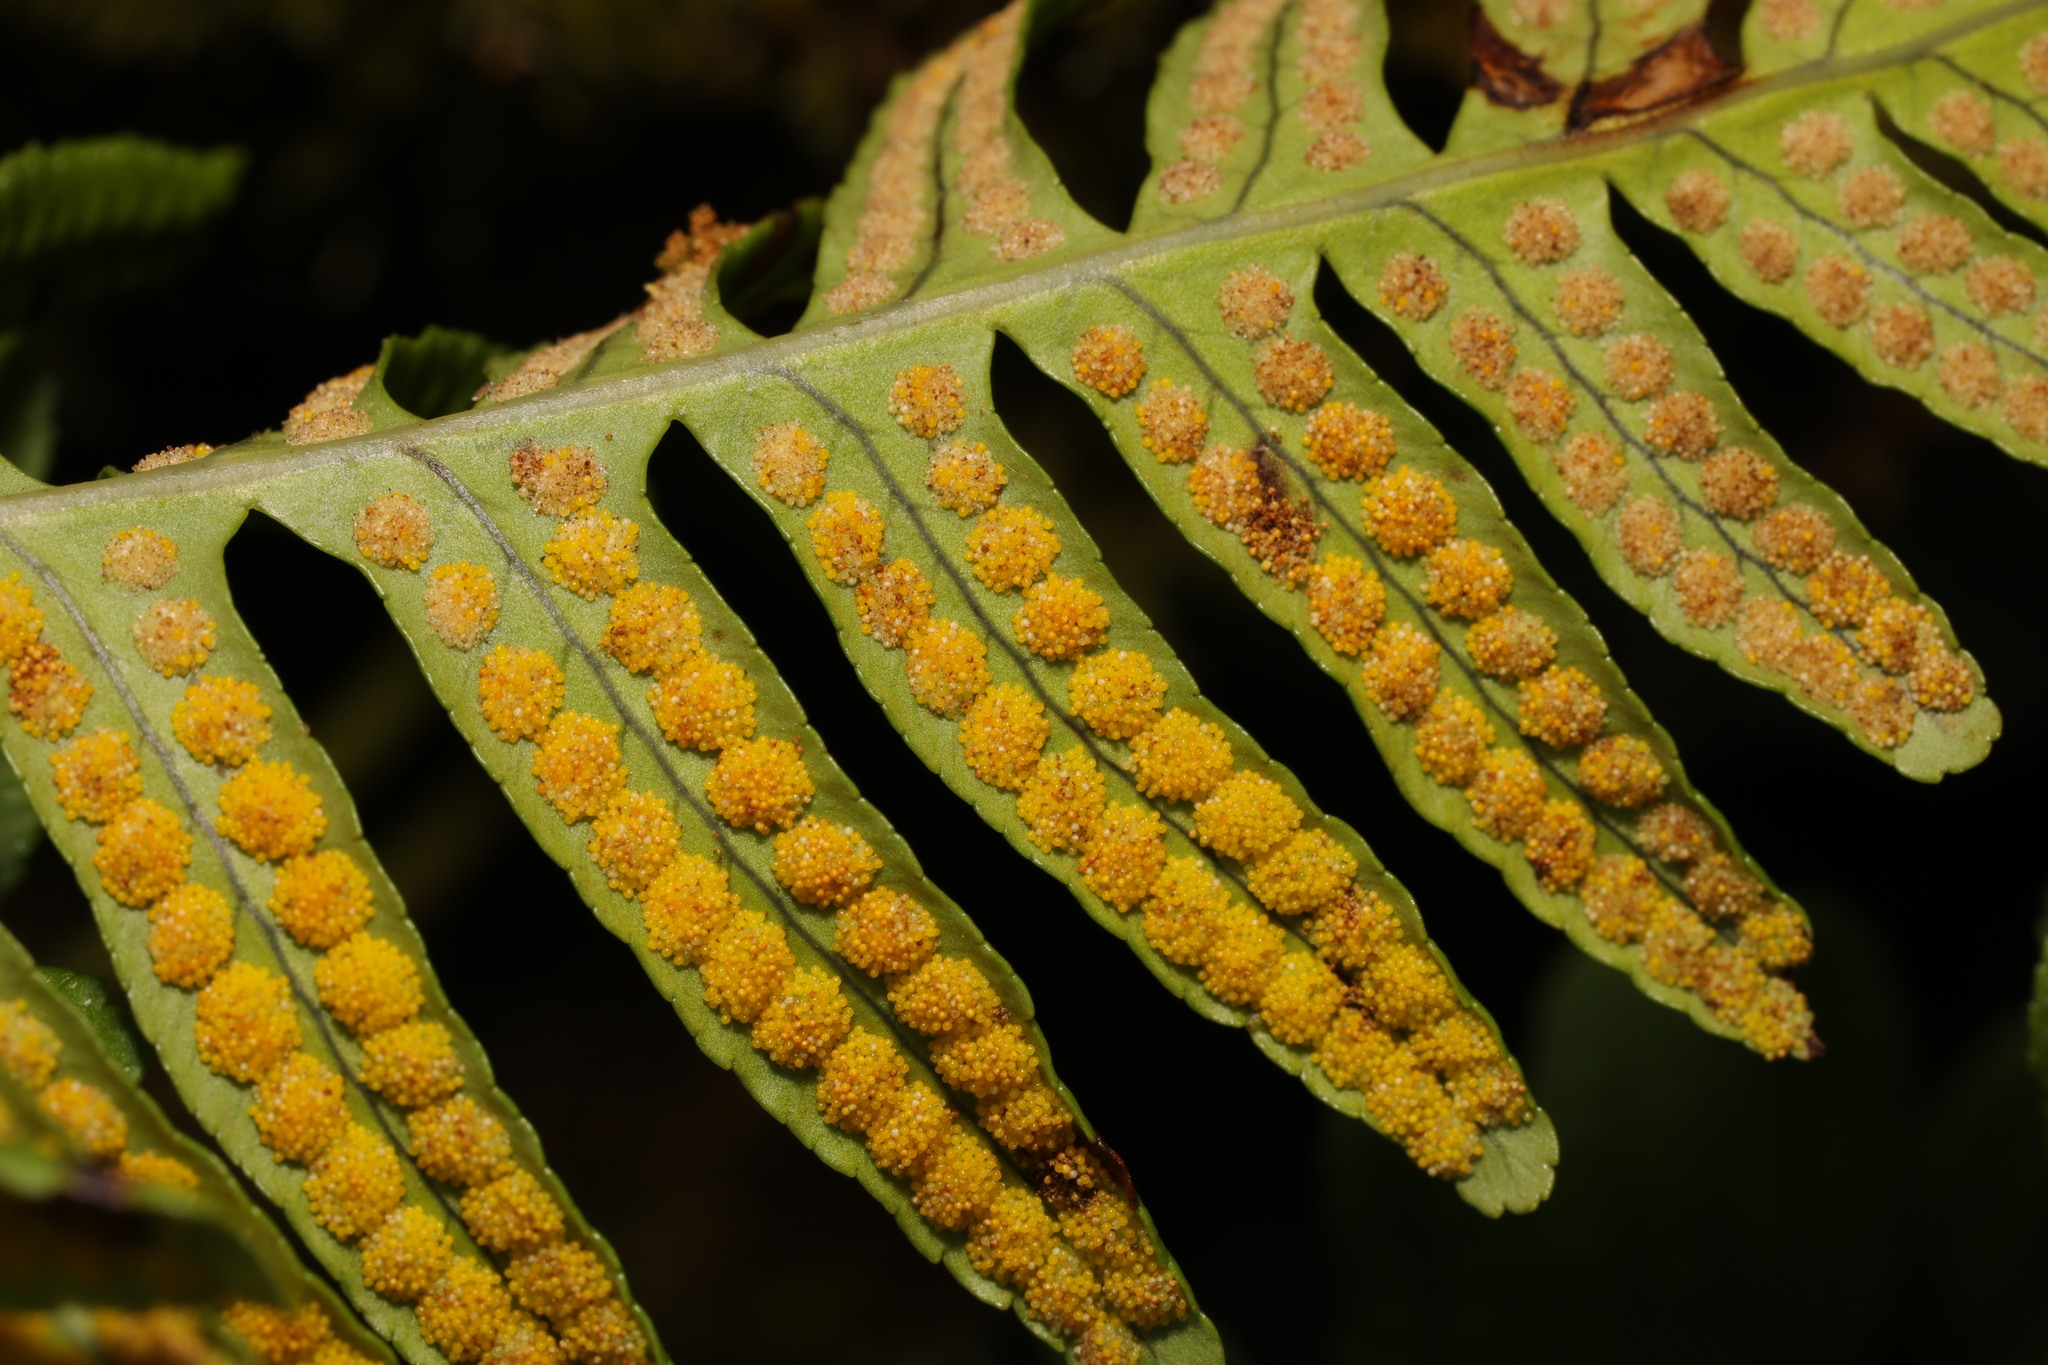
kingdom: Plantae
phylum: Tracheophyta
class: Polypodiopsida
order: Polypodiales
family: Polypodiaceae
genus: Polypodium
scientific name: Polypodium vulgare
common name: Common polypody
